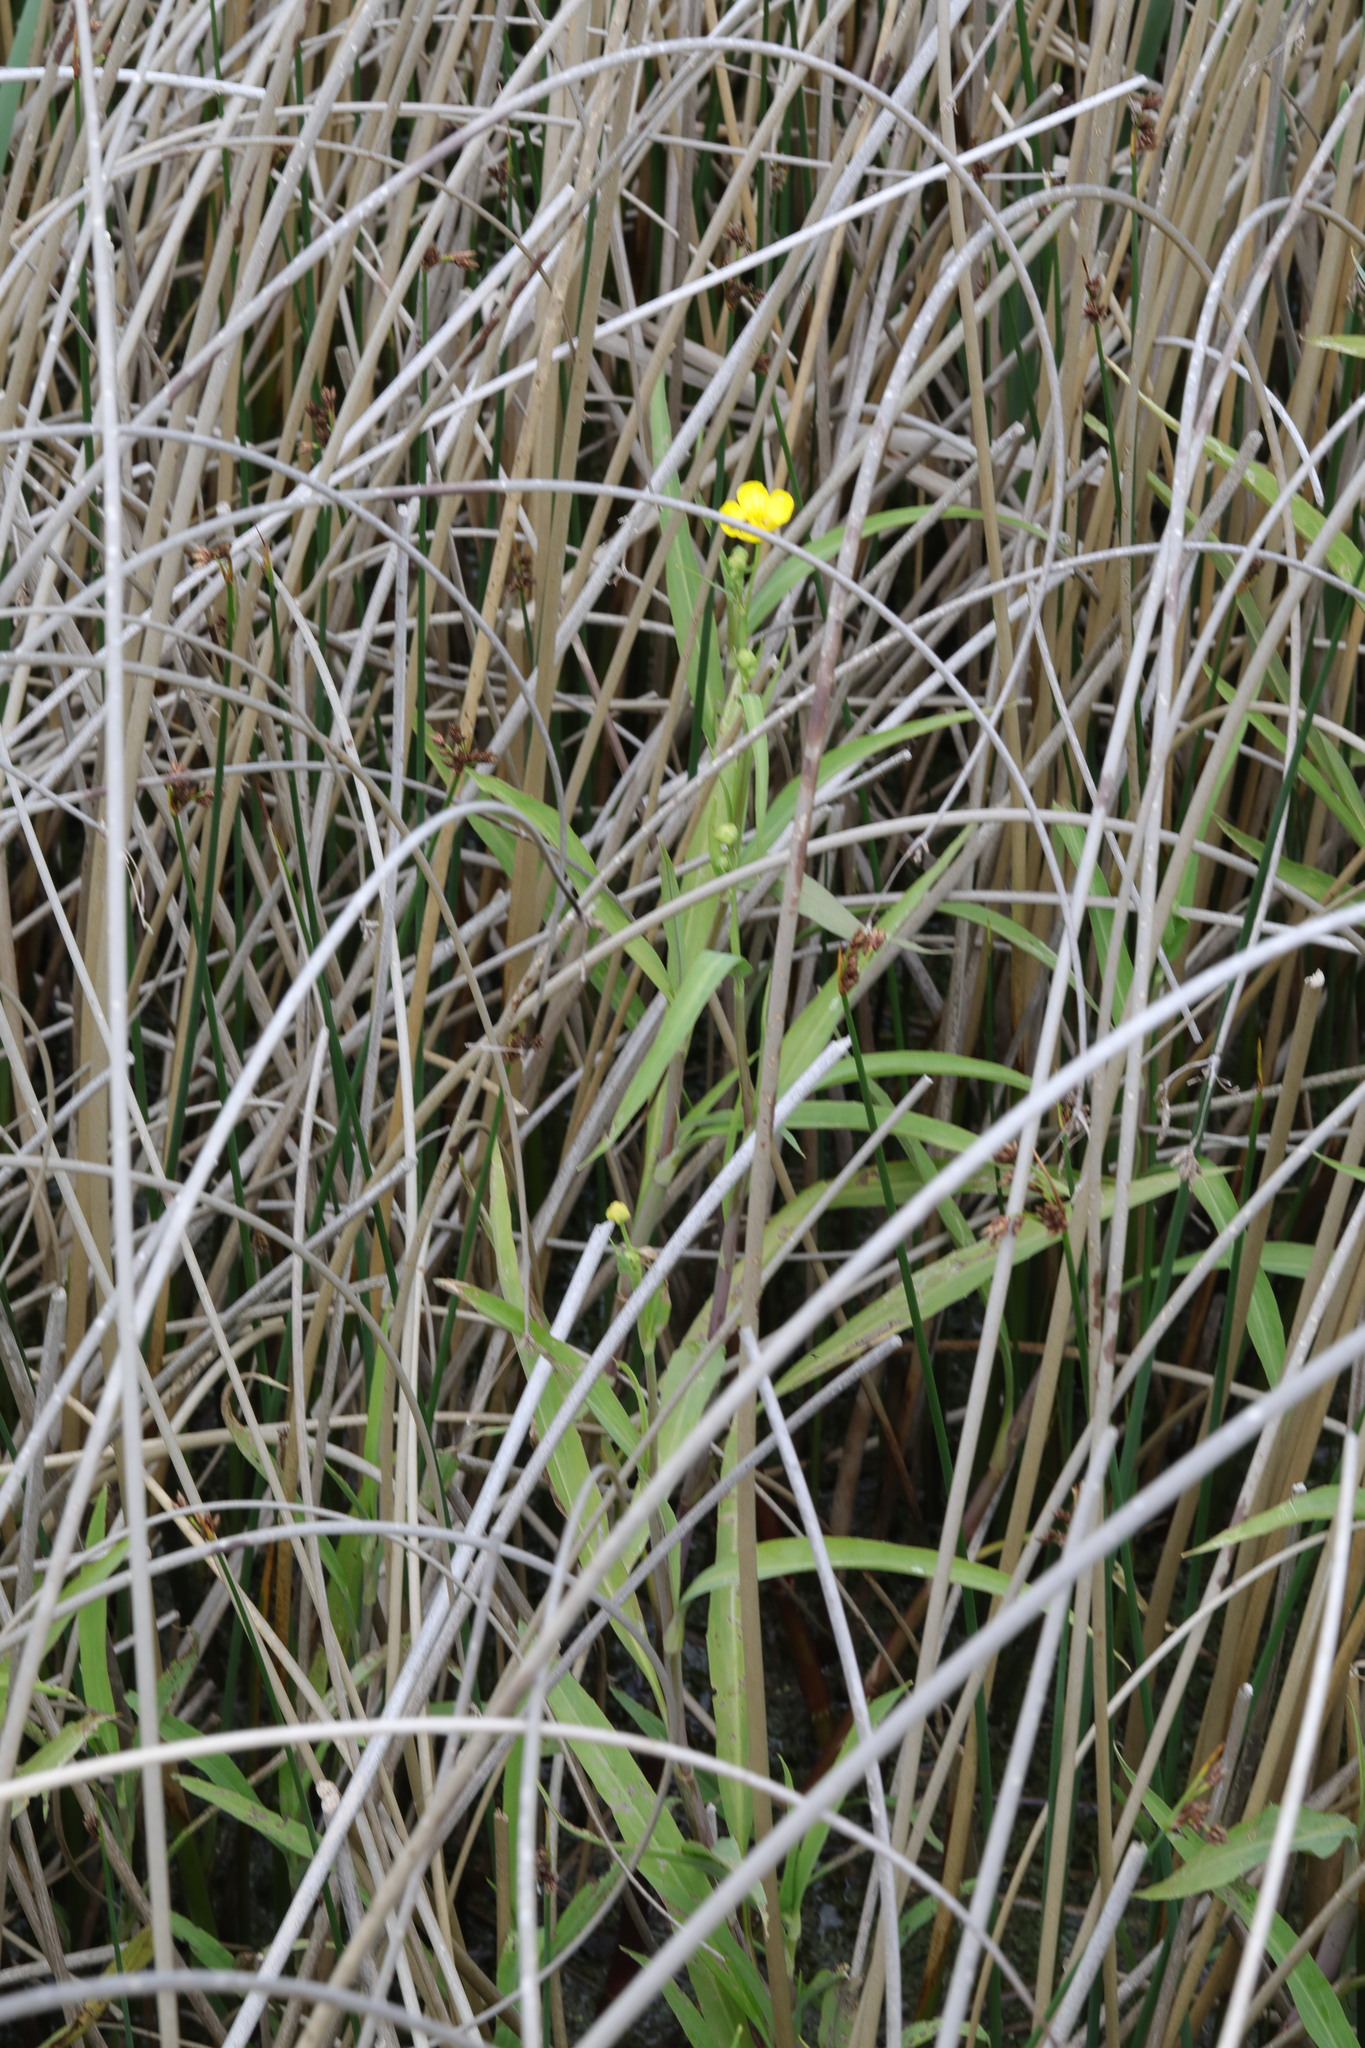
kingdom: Plantae
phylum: Tracheophyta
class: Magnoliopsida
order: Ranunculales
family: Ranunculaceae
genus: Ranunculus
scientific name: Ranunculus lingua
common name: Greater spearwort
